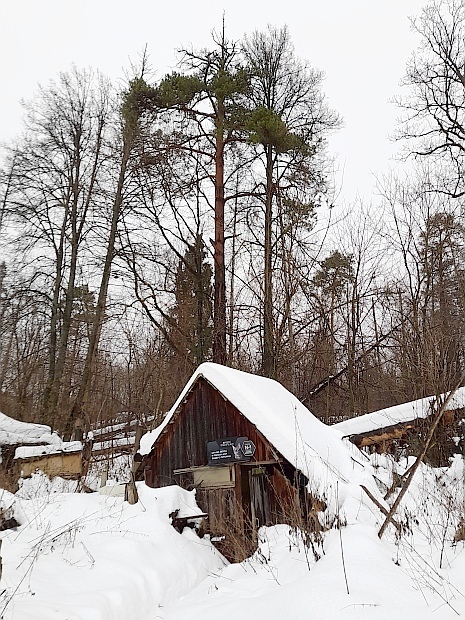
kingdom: Plantae
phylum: Tracheophyta
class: Pinopsida
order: Pinales
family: Pinaceae
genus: Pinus
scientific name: Pinus sylvestris
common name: Scots pine
